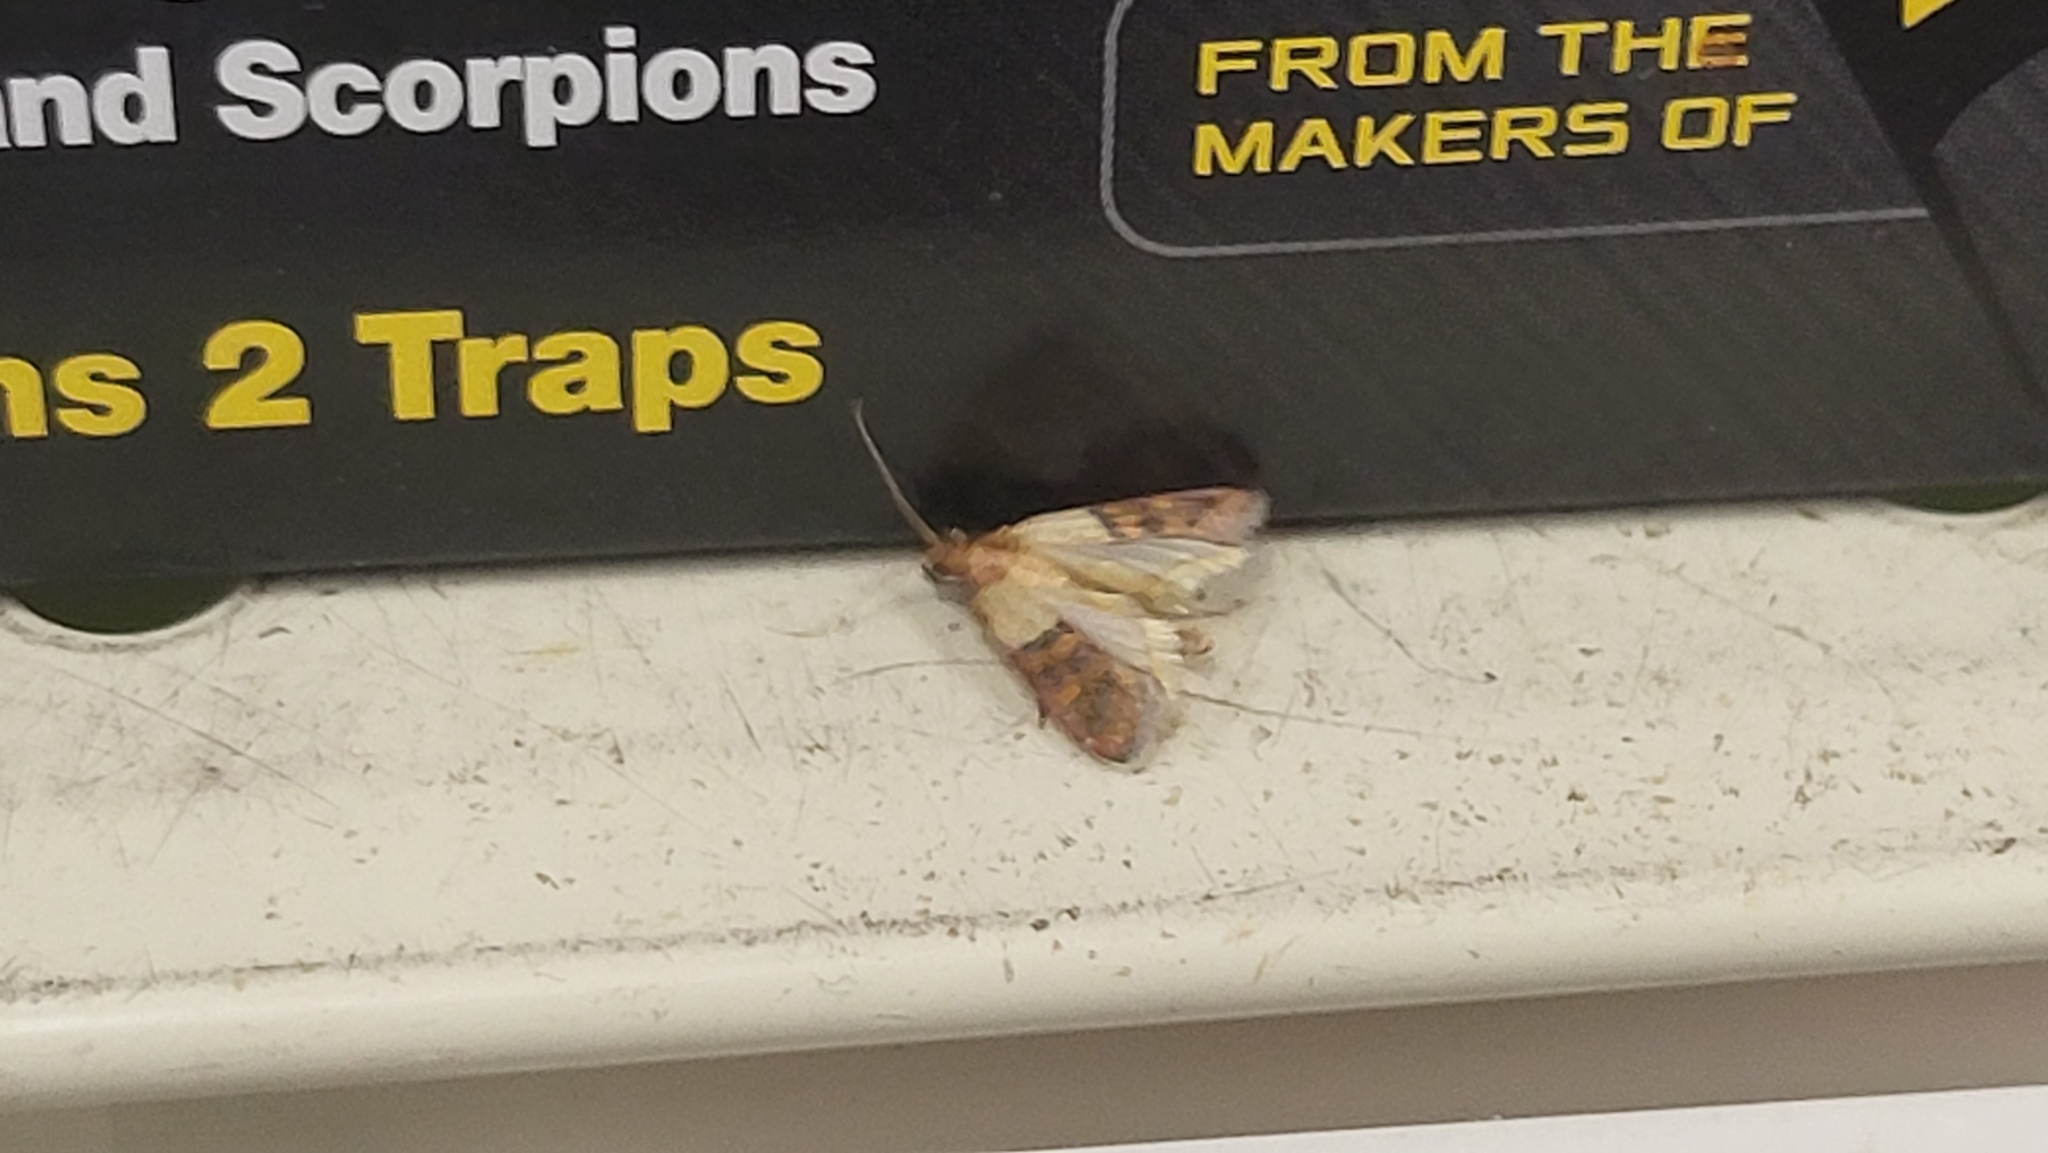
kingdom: Animalia
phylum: Arthropoda
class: Insecta
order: Lepidoptera
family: Pyralidae
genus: Plodia
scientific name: Plodia interpunctella
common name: Indian meal moth
